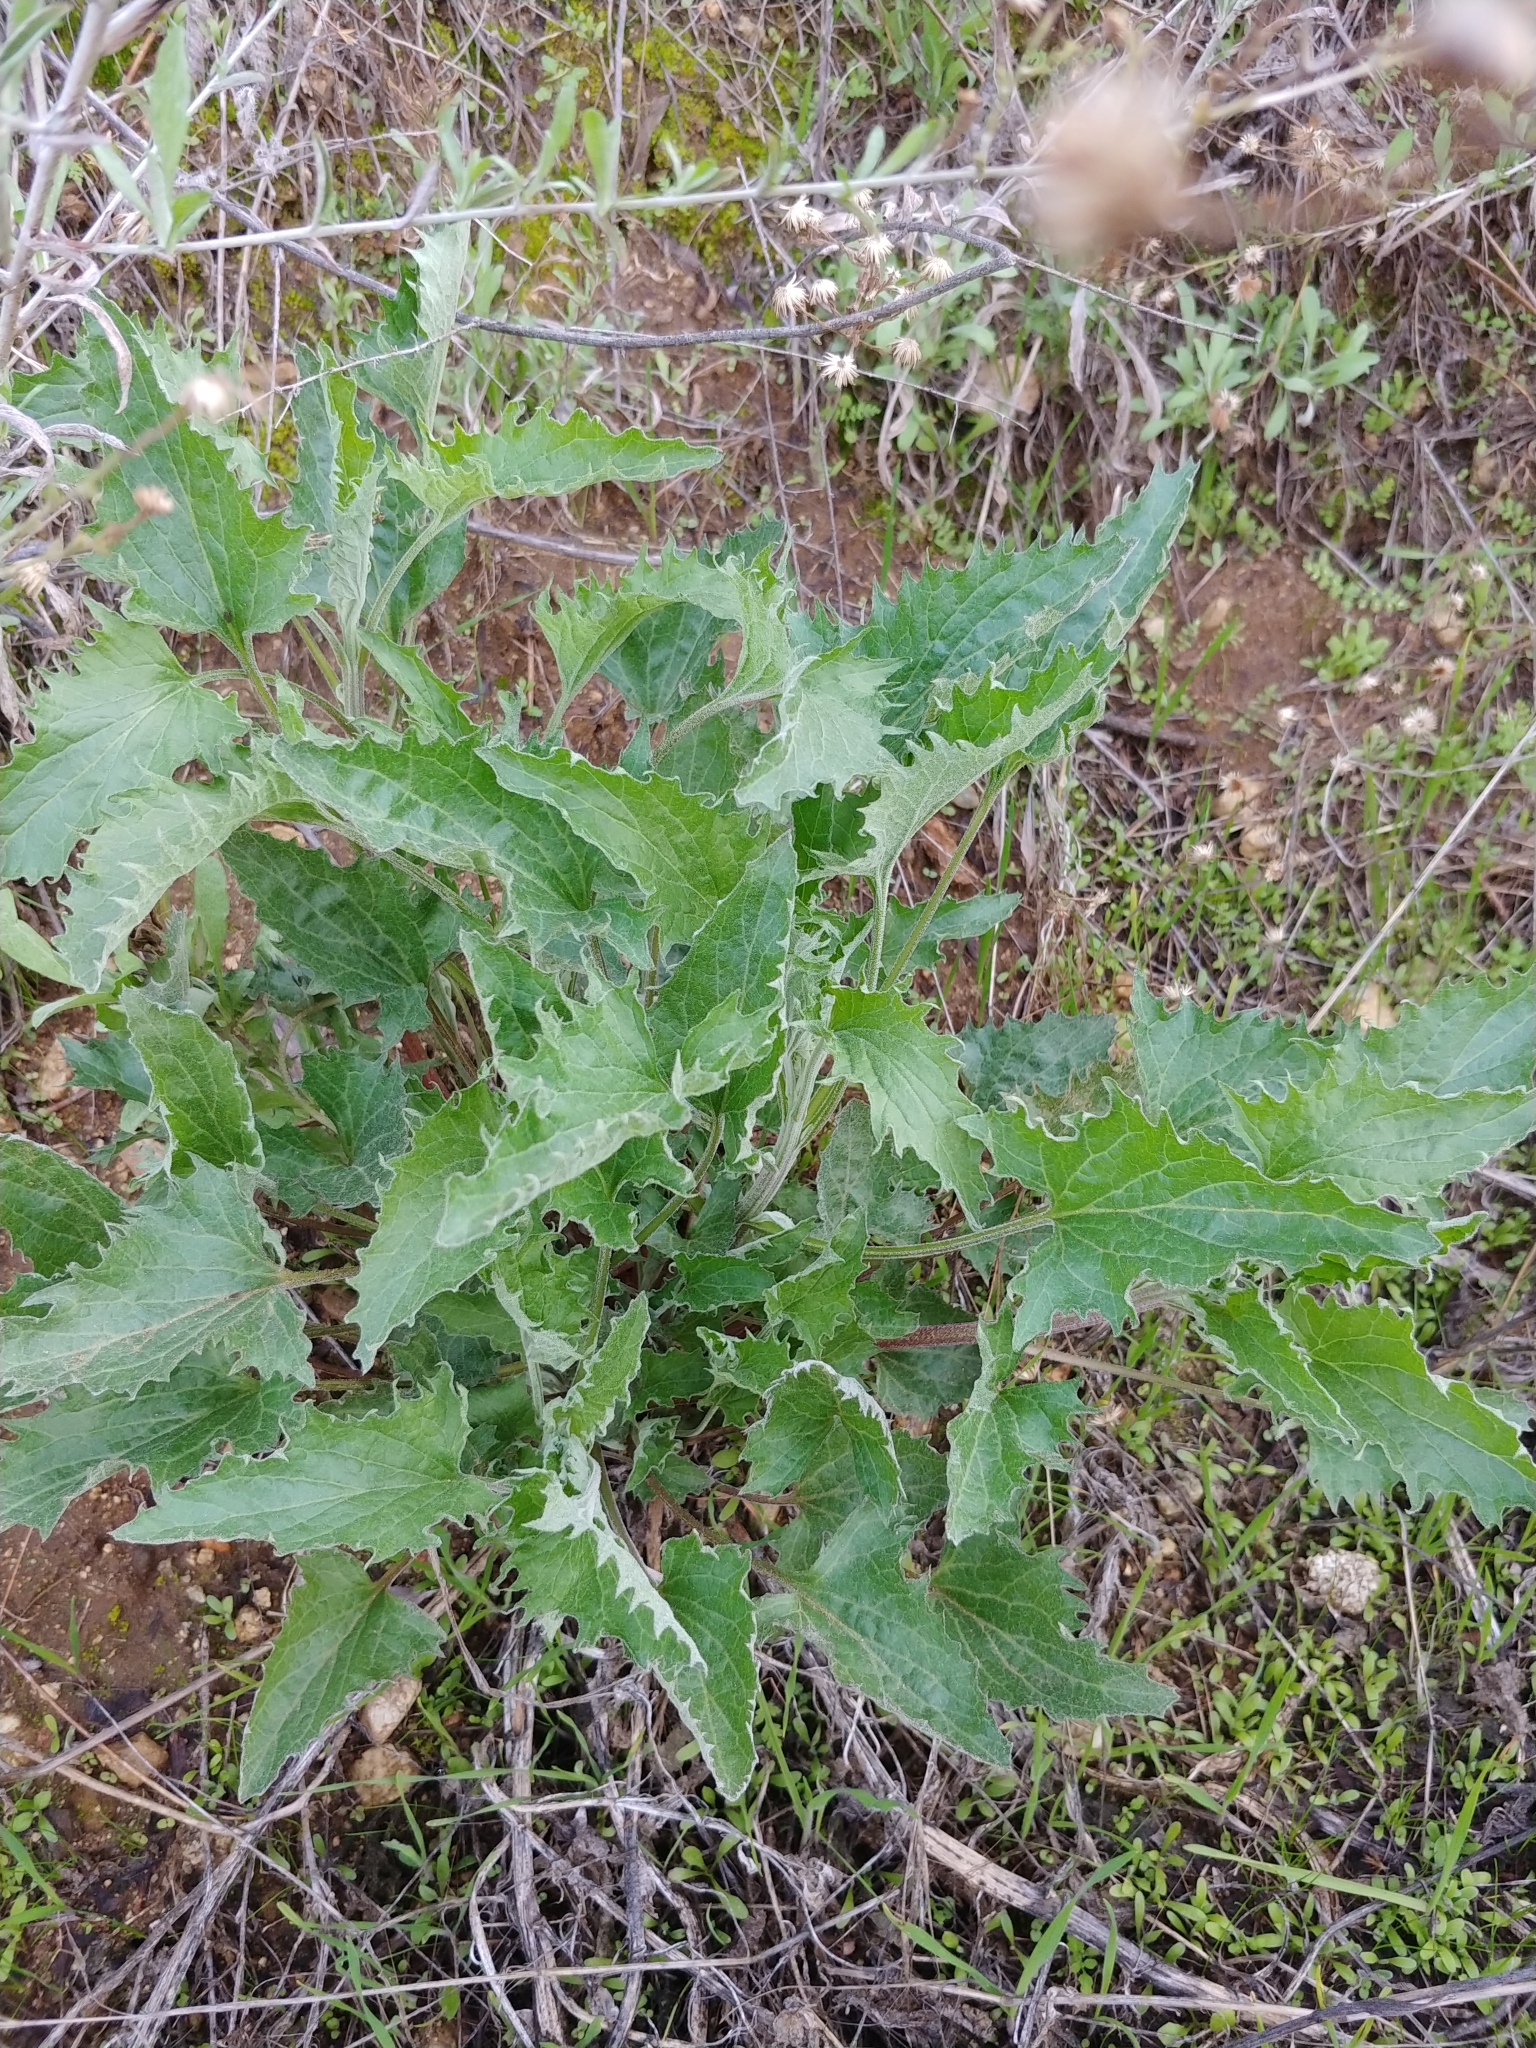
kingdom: Plantae
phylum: Tracheophyta
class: Magnoliopsida
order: Caryophyllales
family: Amaranthaceae
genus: Blitum
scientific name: Blitum californicum
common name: California goosefoot
